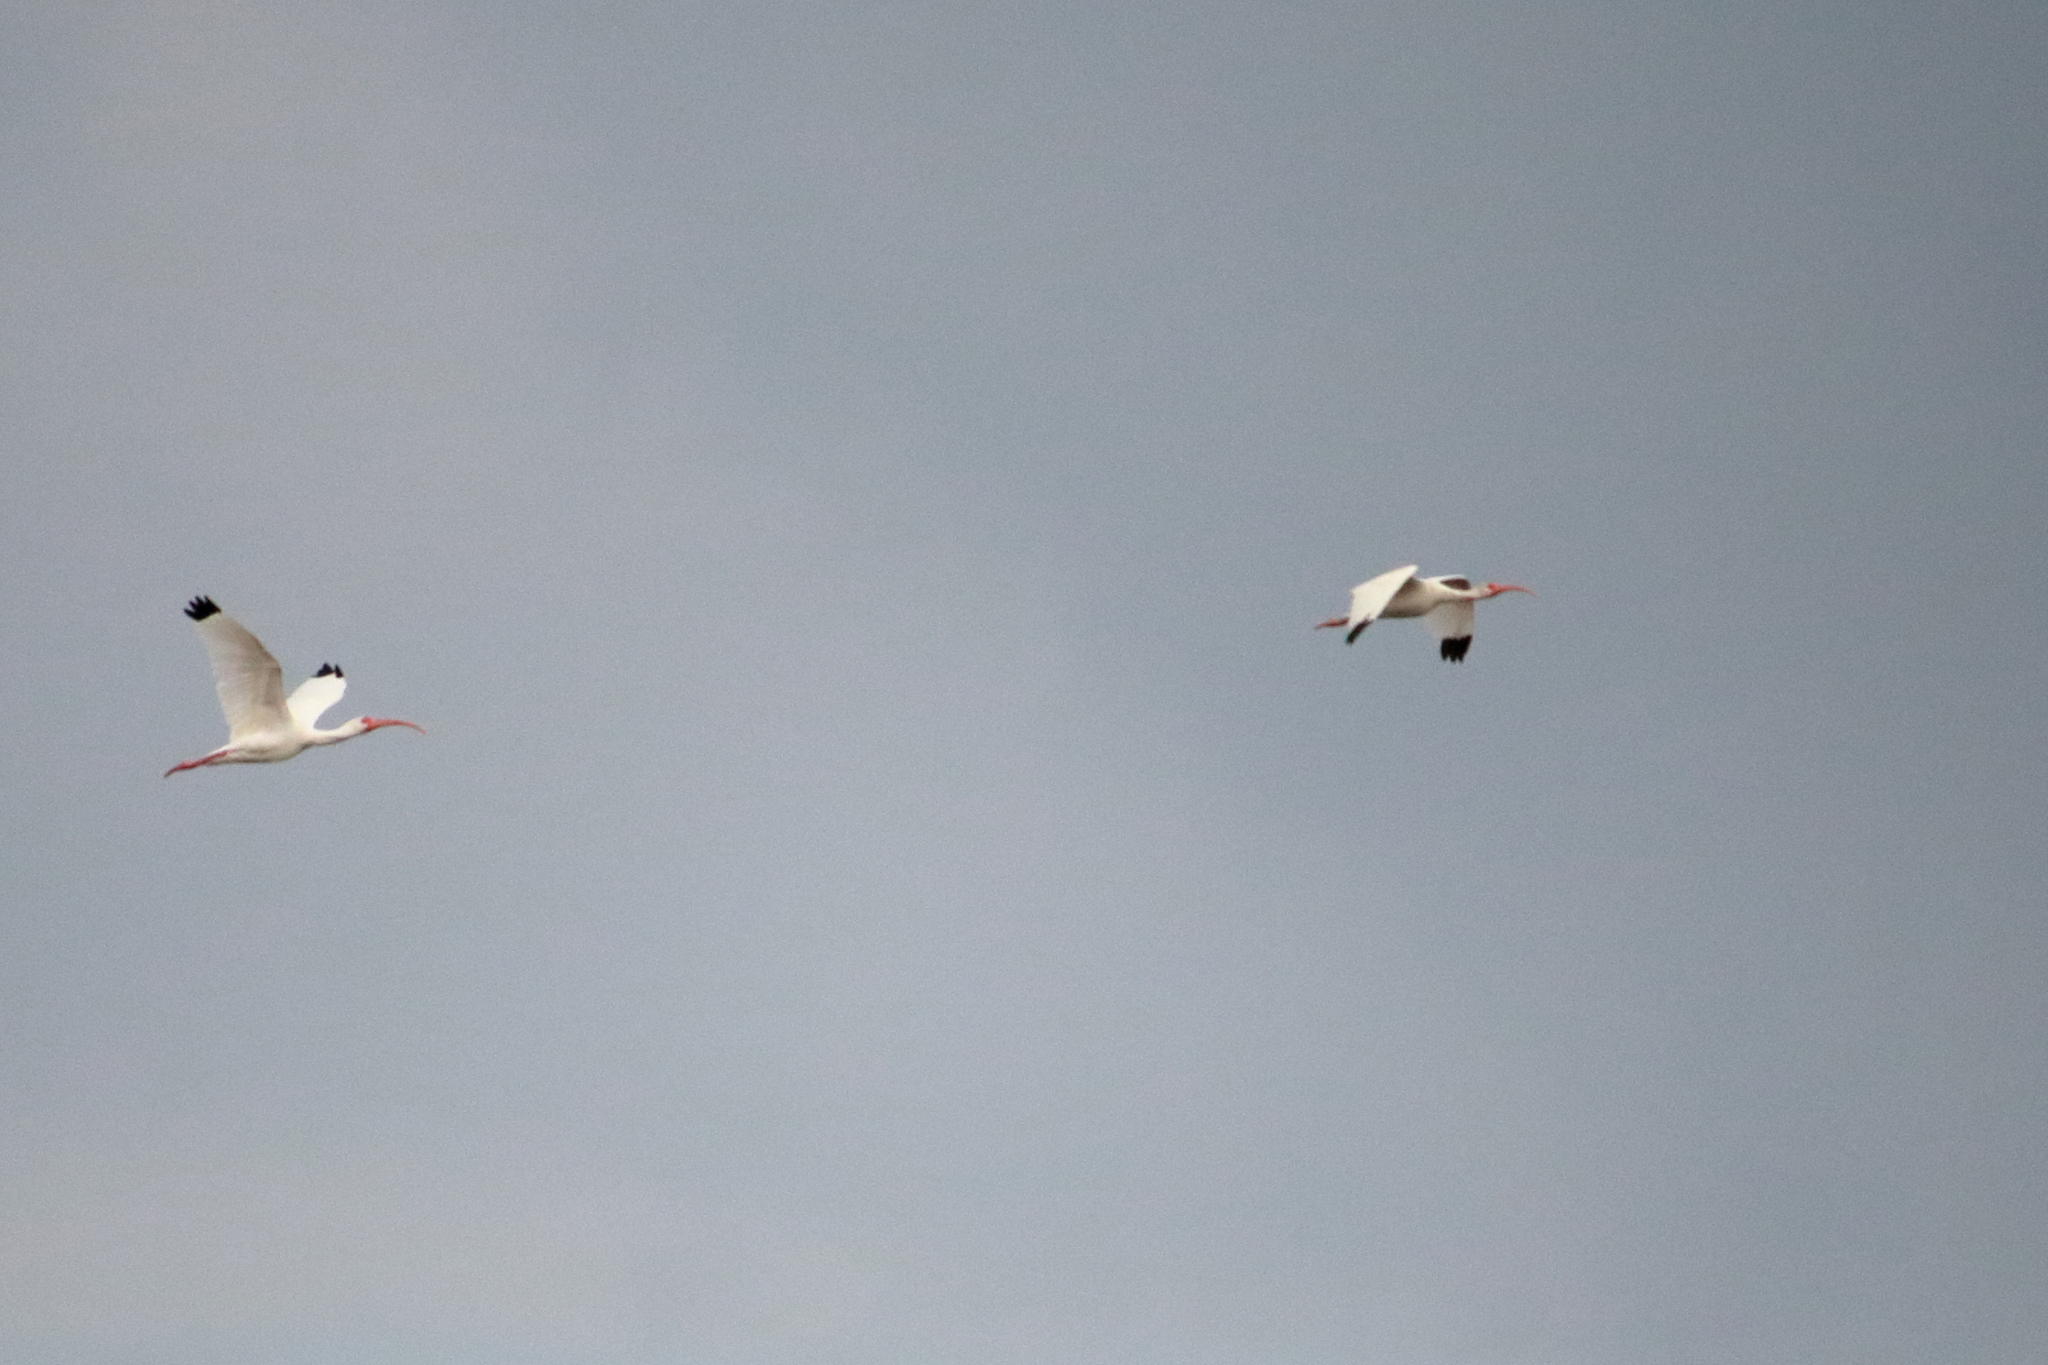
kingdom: Animalia
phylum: Chordata
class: Aves
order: Pelecaniformes
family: Threskiornithidae
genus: Eudocimus
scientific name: Eudocimus albus
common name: White ibis
